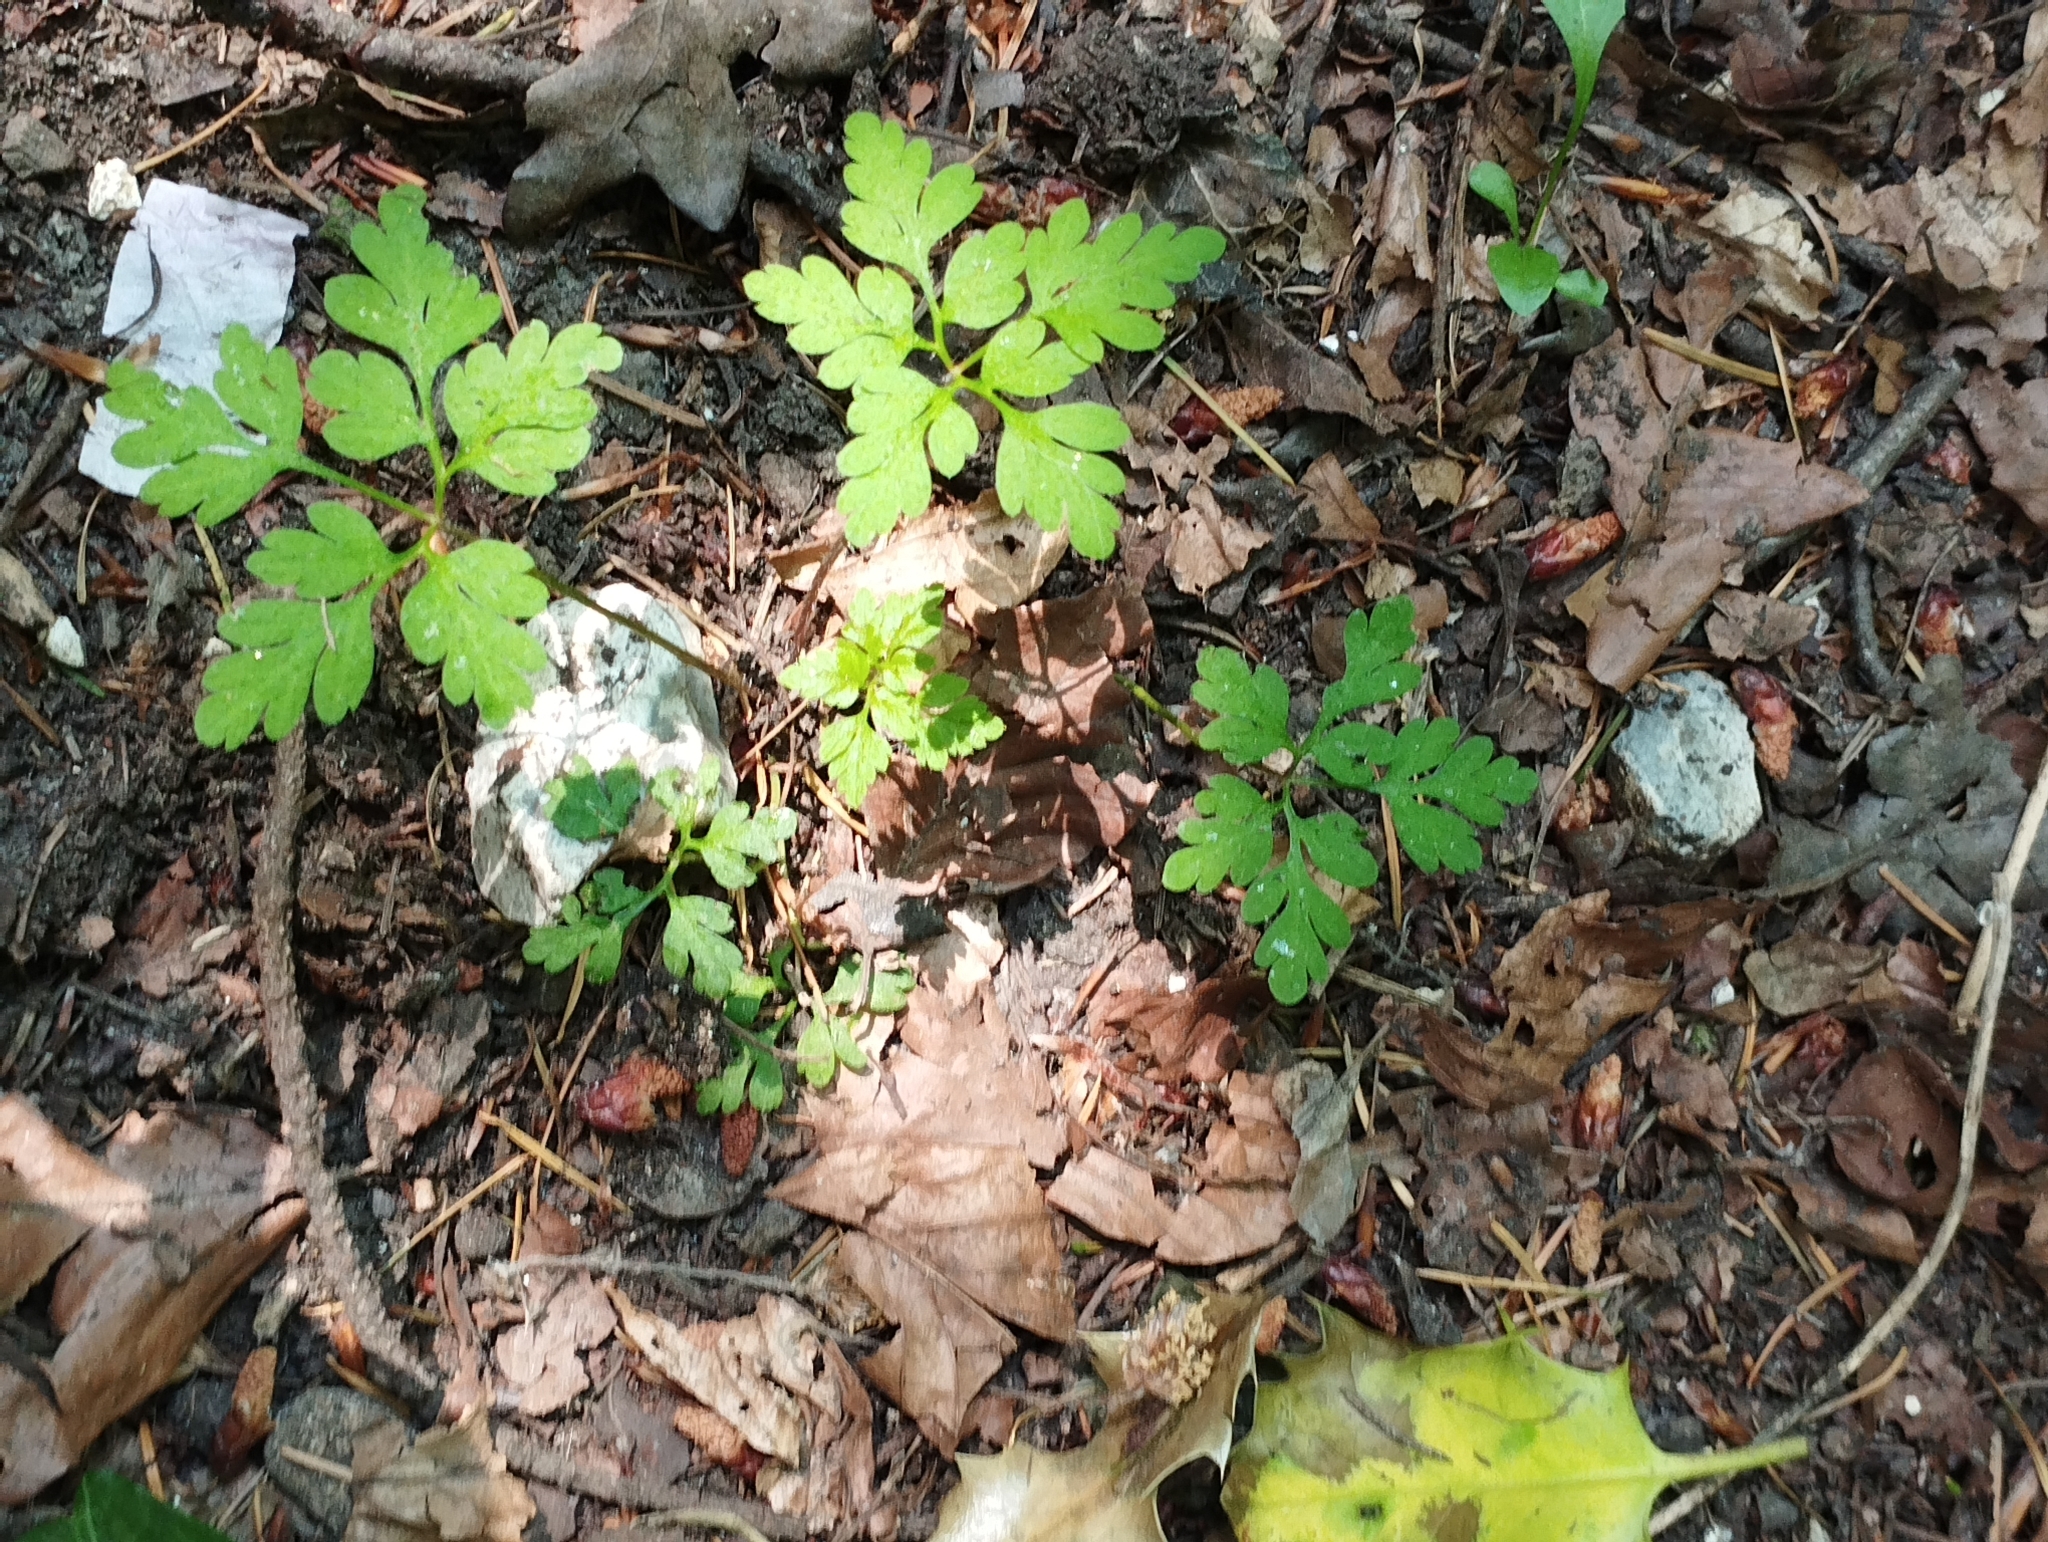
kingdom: Plantae
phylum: Tracheophyta
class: Magnoliopsida
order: Geraniales
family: Geraniaceae
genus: Geranium
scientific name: Geranium robertianum
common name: Herb-robert
